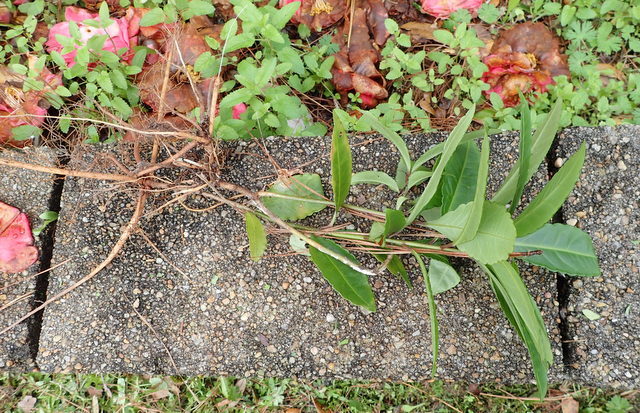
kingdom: Plantae
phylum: Tracheophyta
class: Magnoliopsida
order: Ericales
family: Primulaceae
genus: Ardisia
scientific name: Ardisia crenata
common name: Hen's eyes
